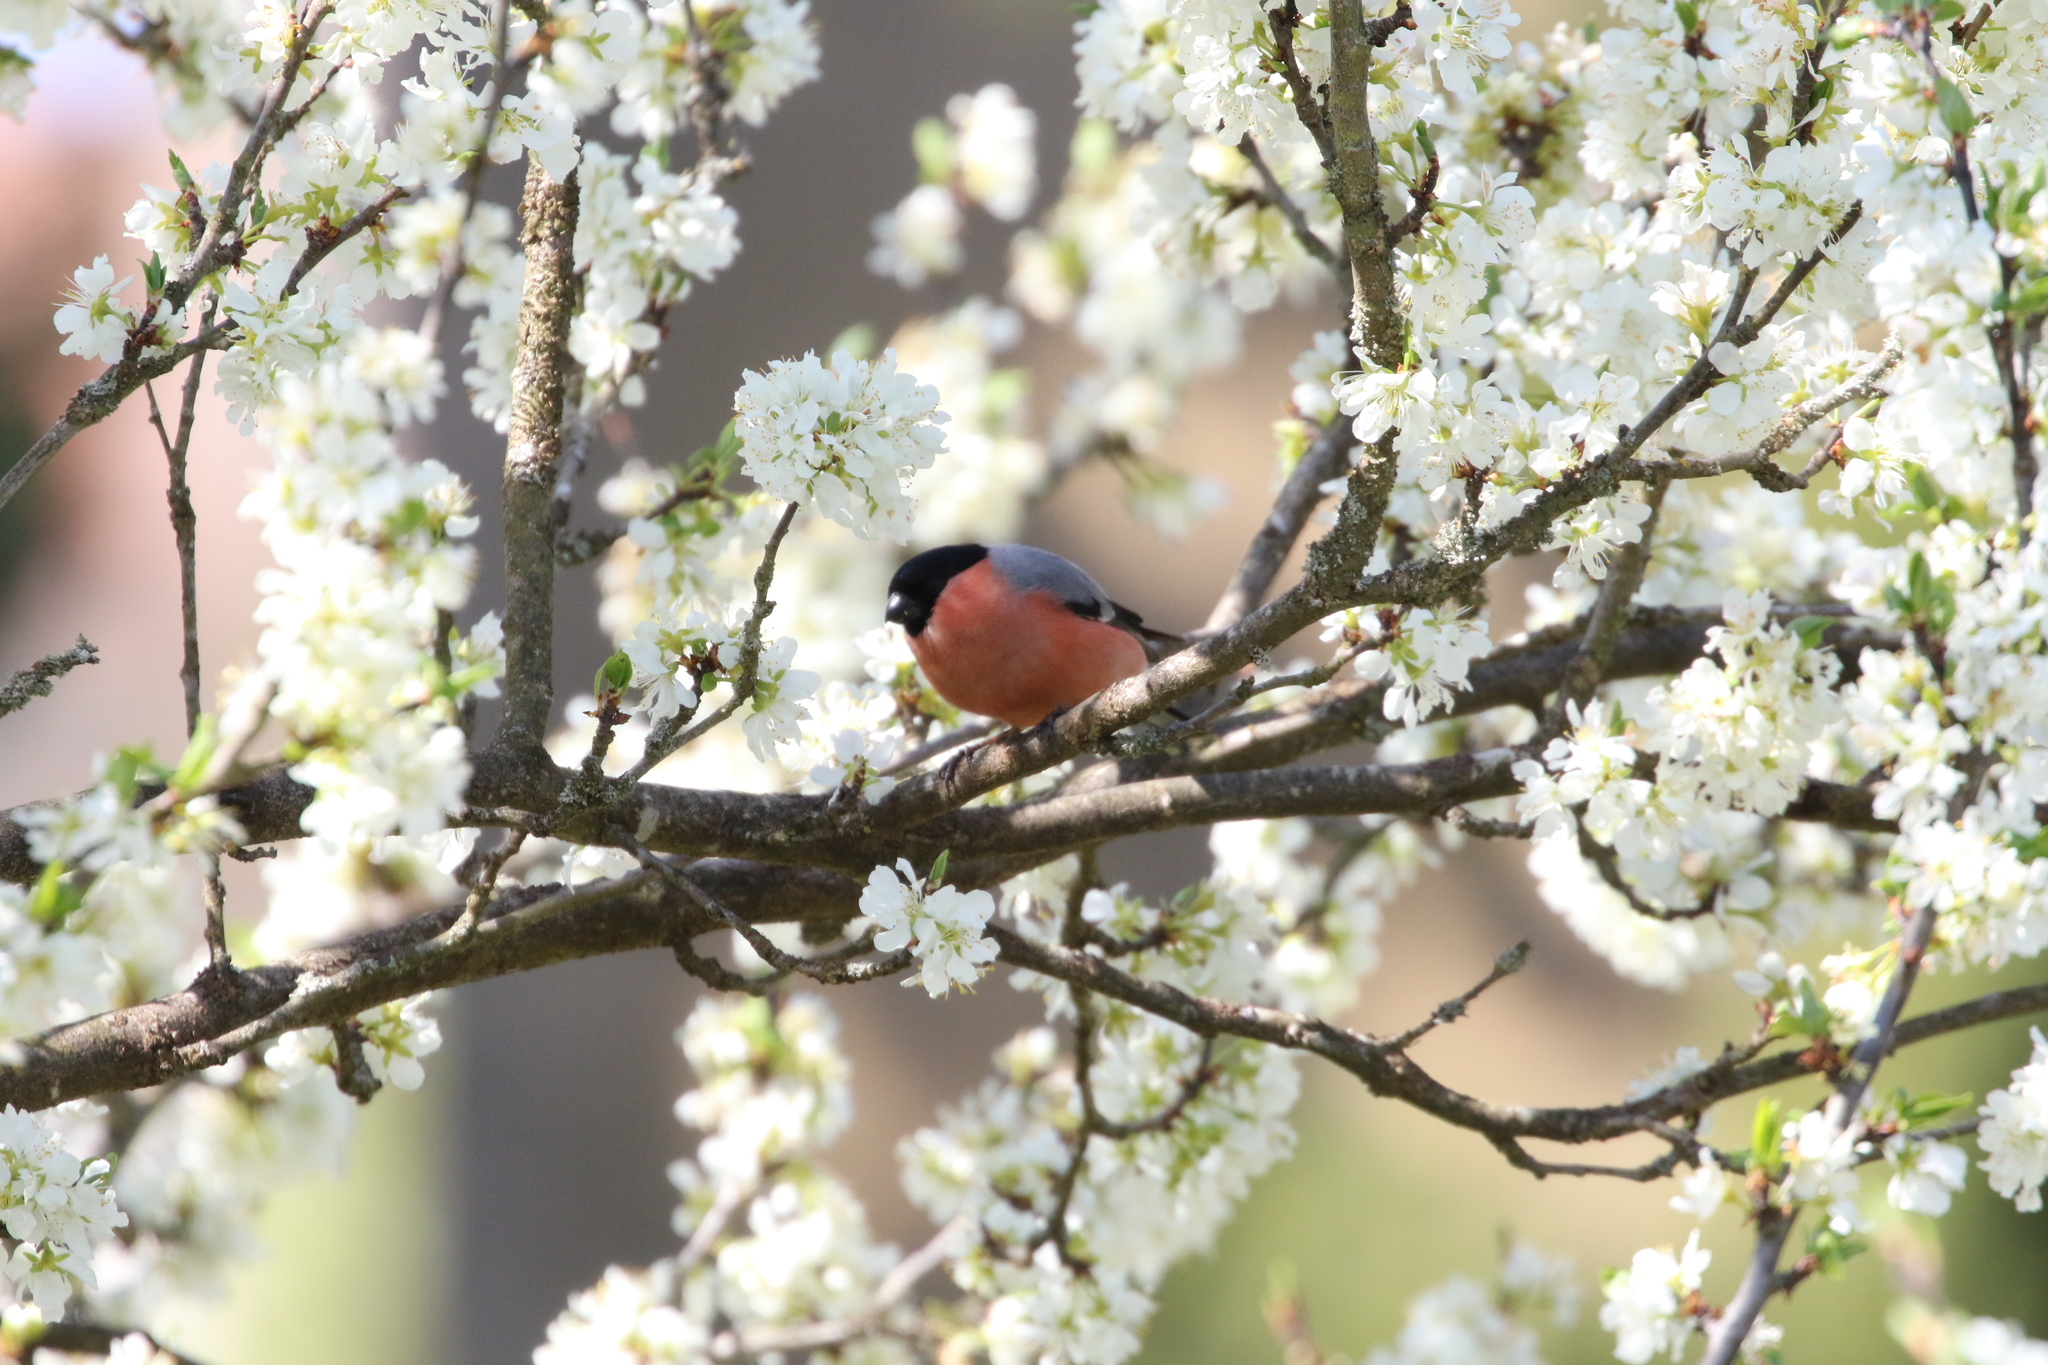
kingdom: Animalia
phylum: Chordata
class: Aves
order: Passeriformes
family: Fringillidae
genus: Pyrrhula
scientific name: Pyrrhula pyrrhula
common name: Eurasian bullfinch
